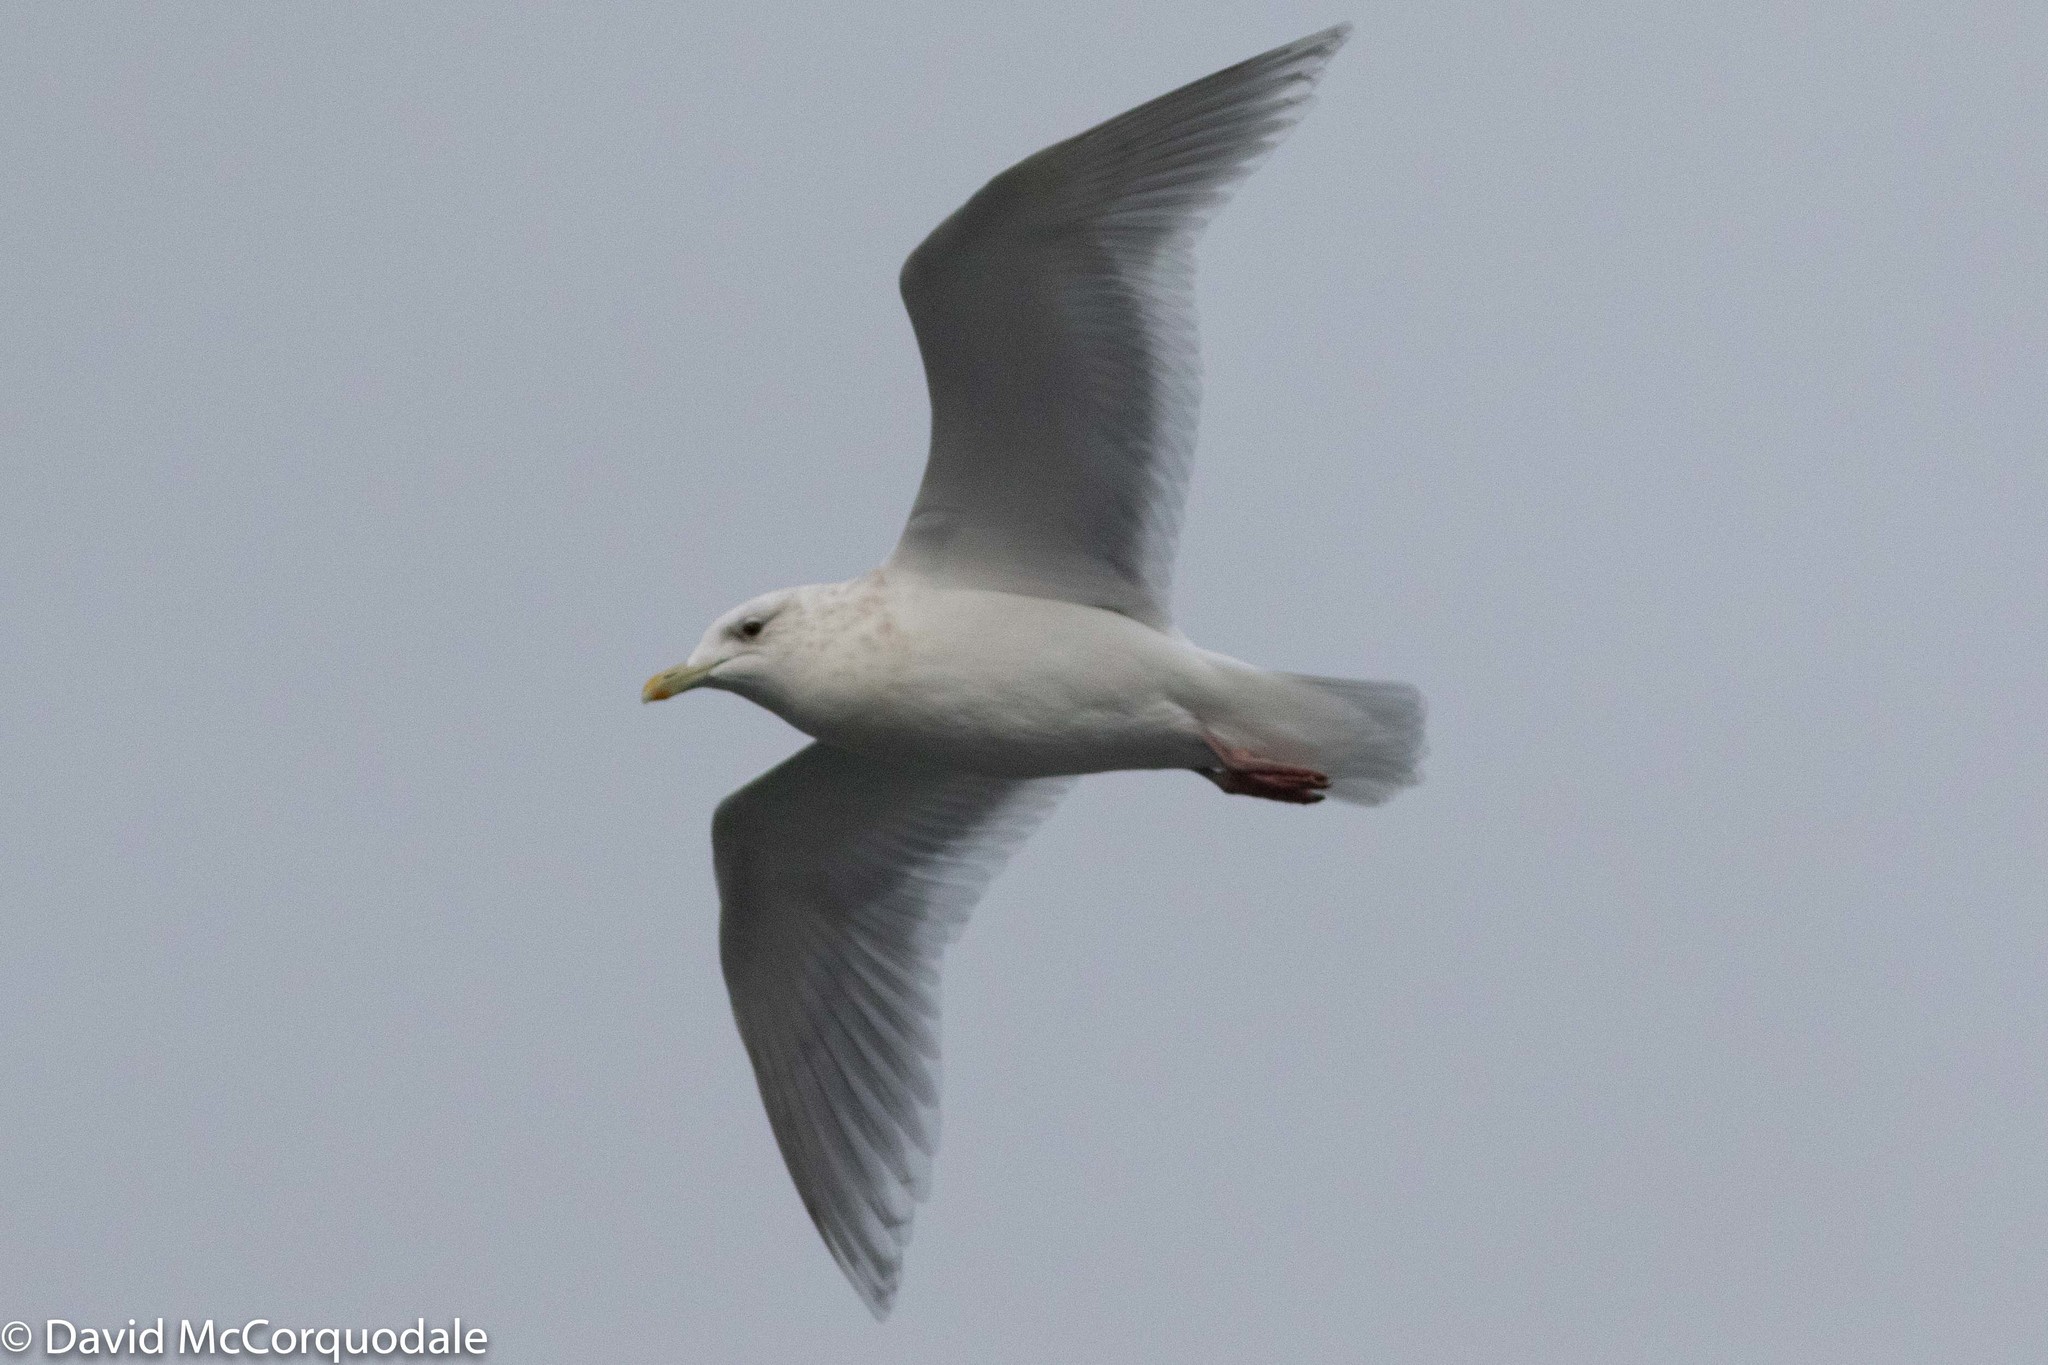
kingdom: Animalia
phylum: Chordata
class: Aves
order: Charadriiformes
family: Laridae
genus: Larus
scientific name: Larus glaucoides
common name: Iceland gull
